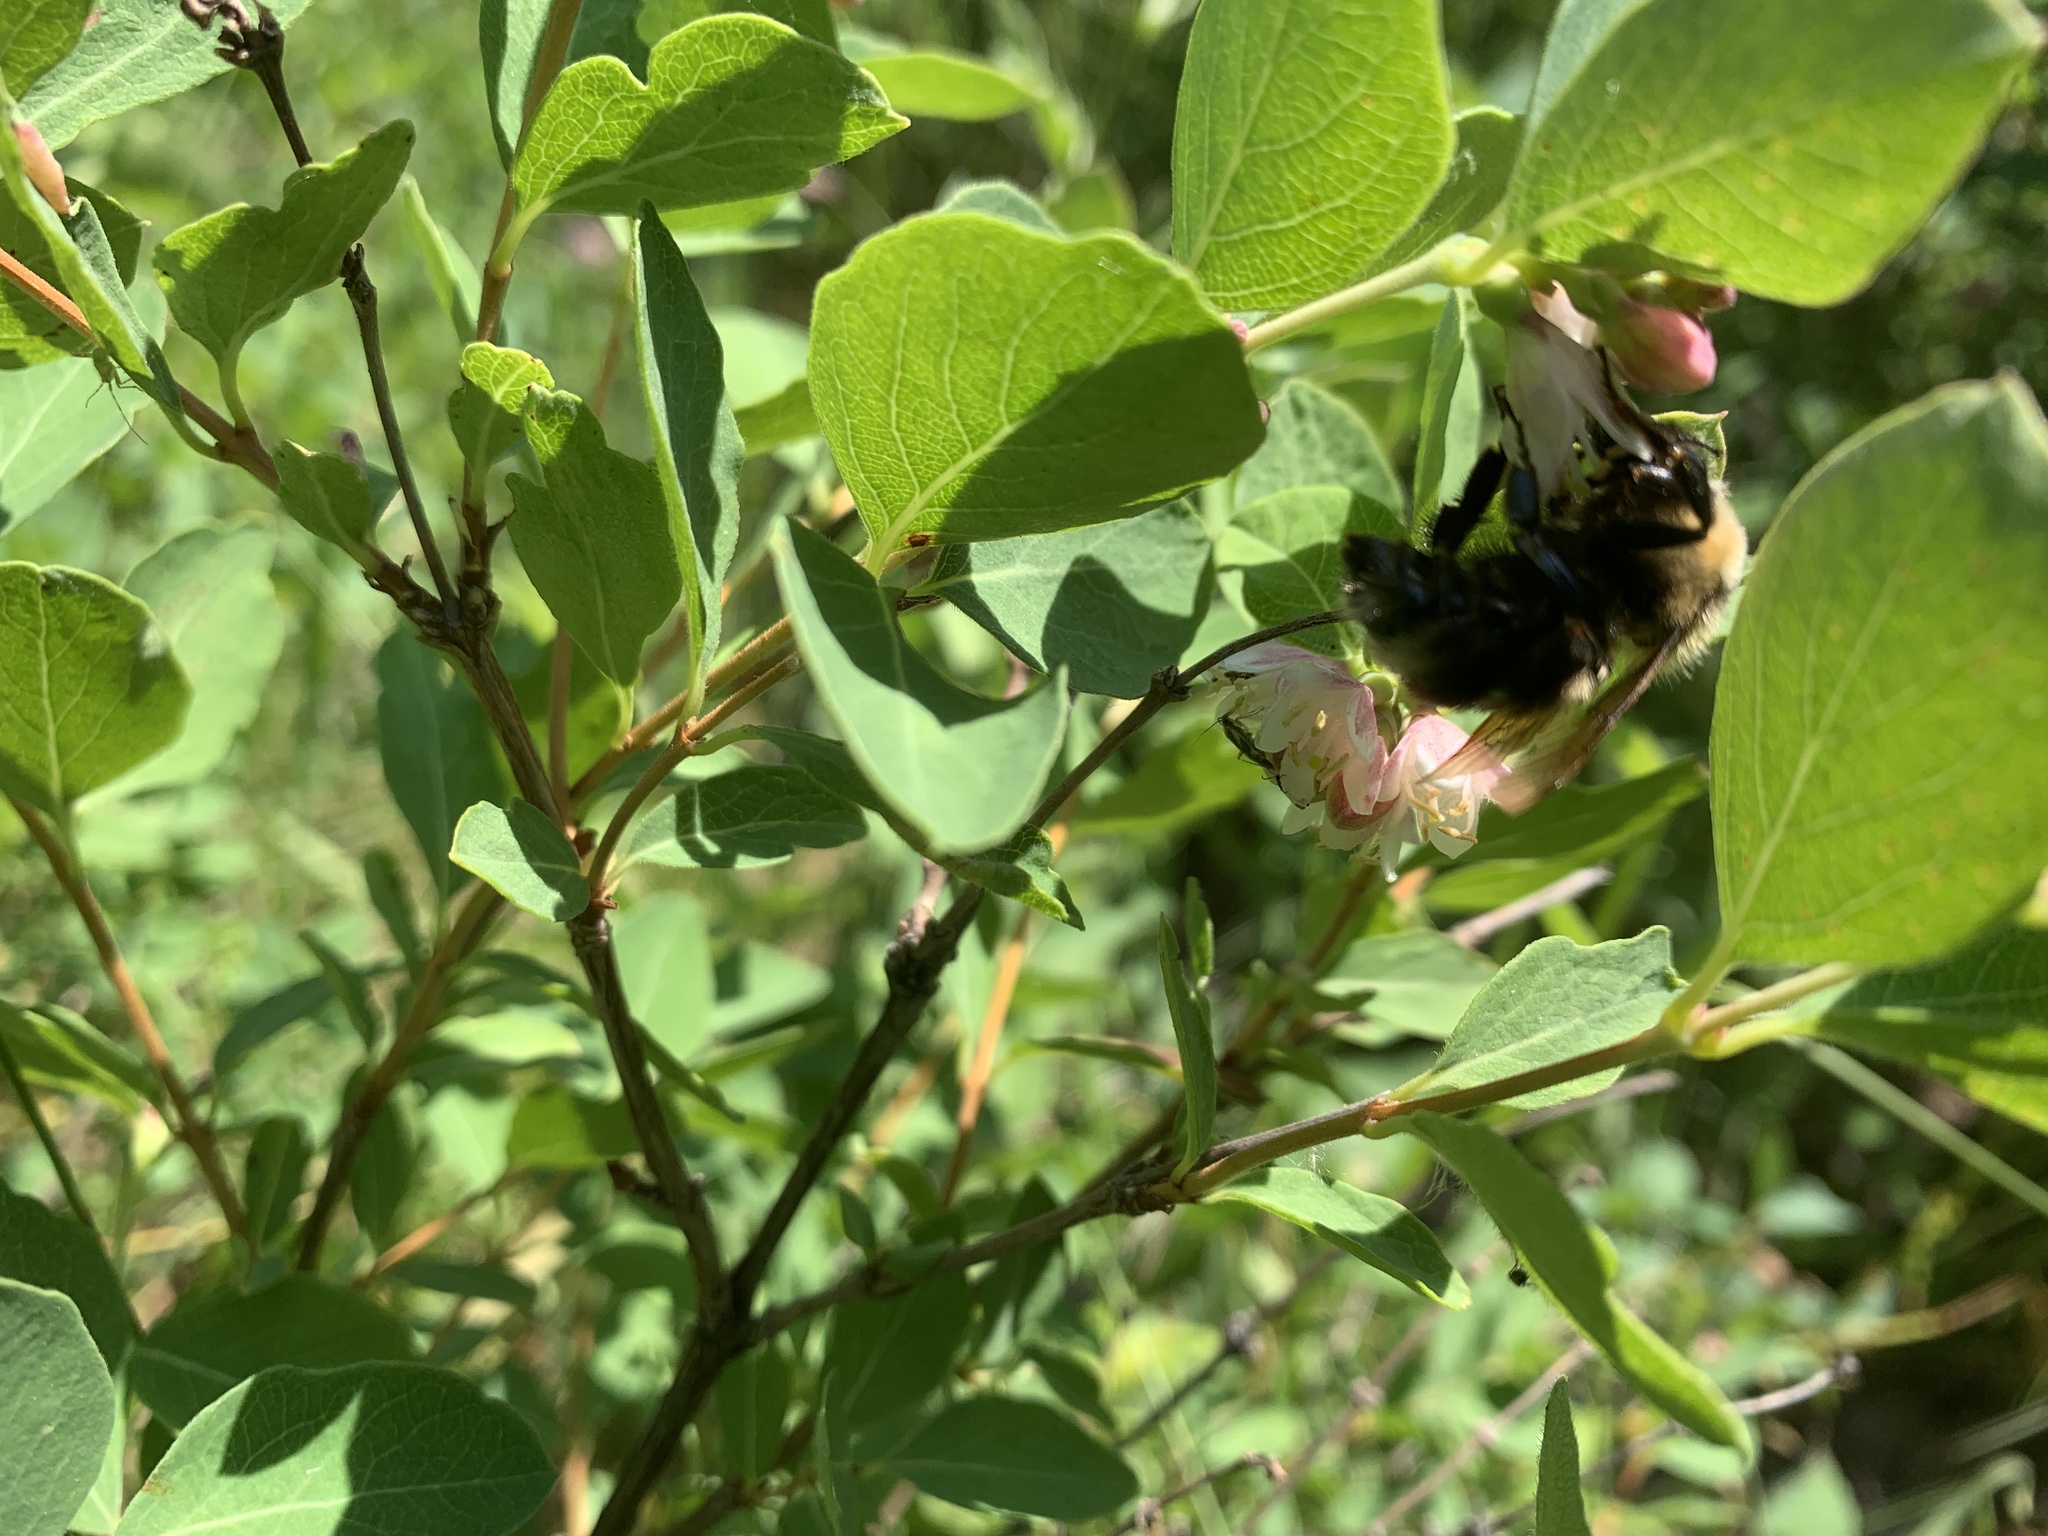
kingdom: Animalia
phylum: Arthropoda
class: Insecta
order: Hymenoptera
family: Apidae
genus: Bombus
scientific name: Bombus rufocinctus
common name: Red-belted bumble bee
